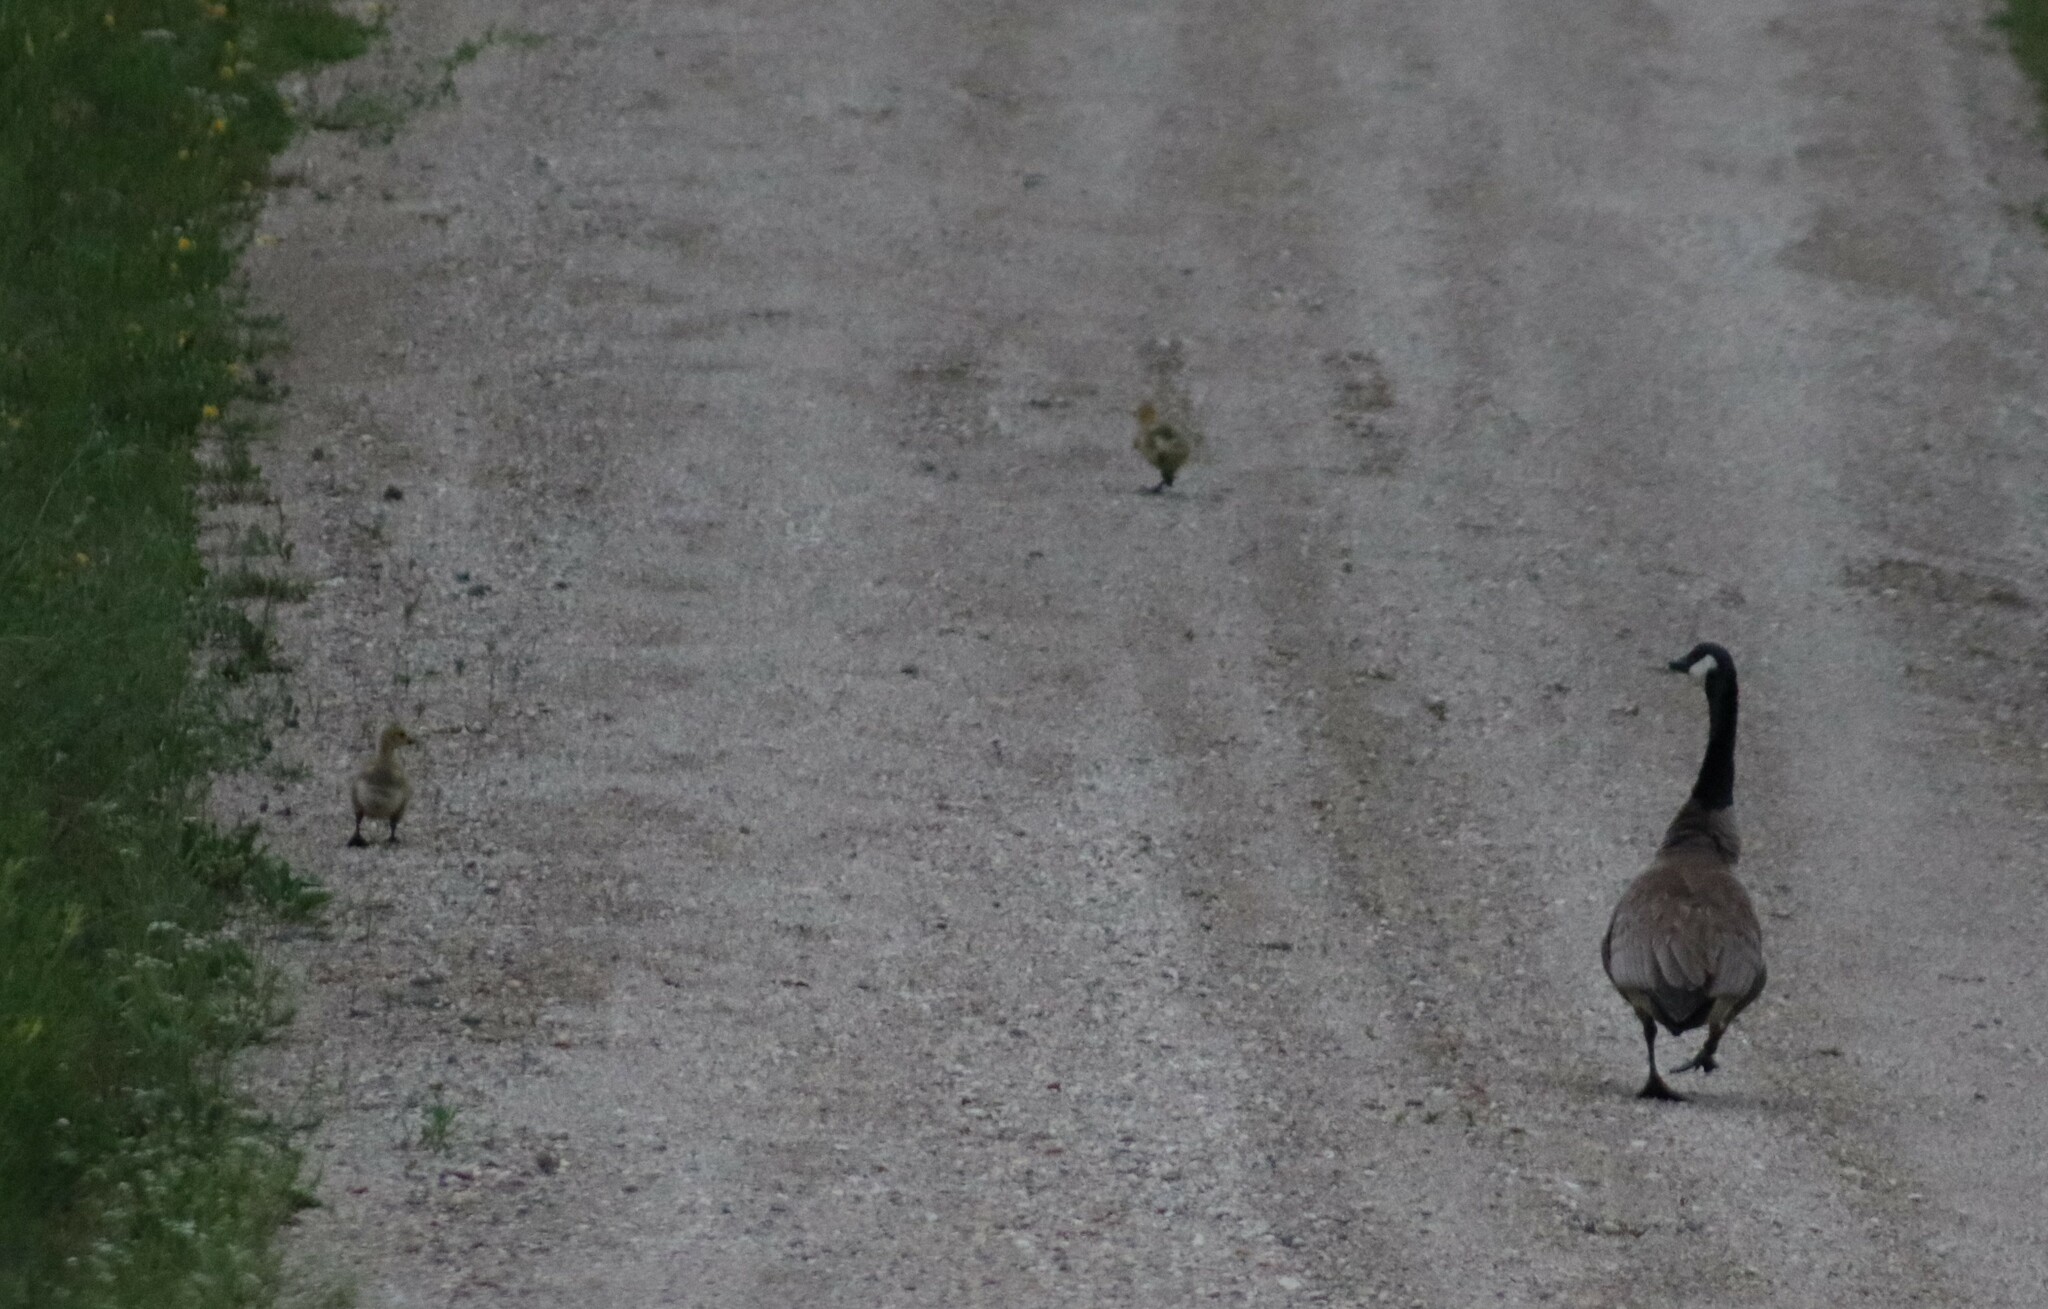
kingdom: Animalia
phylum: Chordata
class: Aves
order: Anseriformes
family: Anatidae
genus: Branta
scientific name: Branta canadensis
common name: Canada goose
